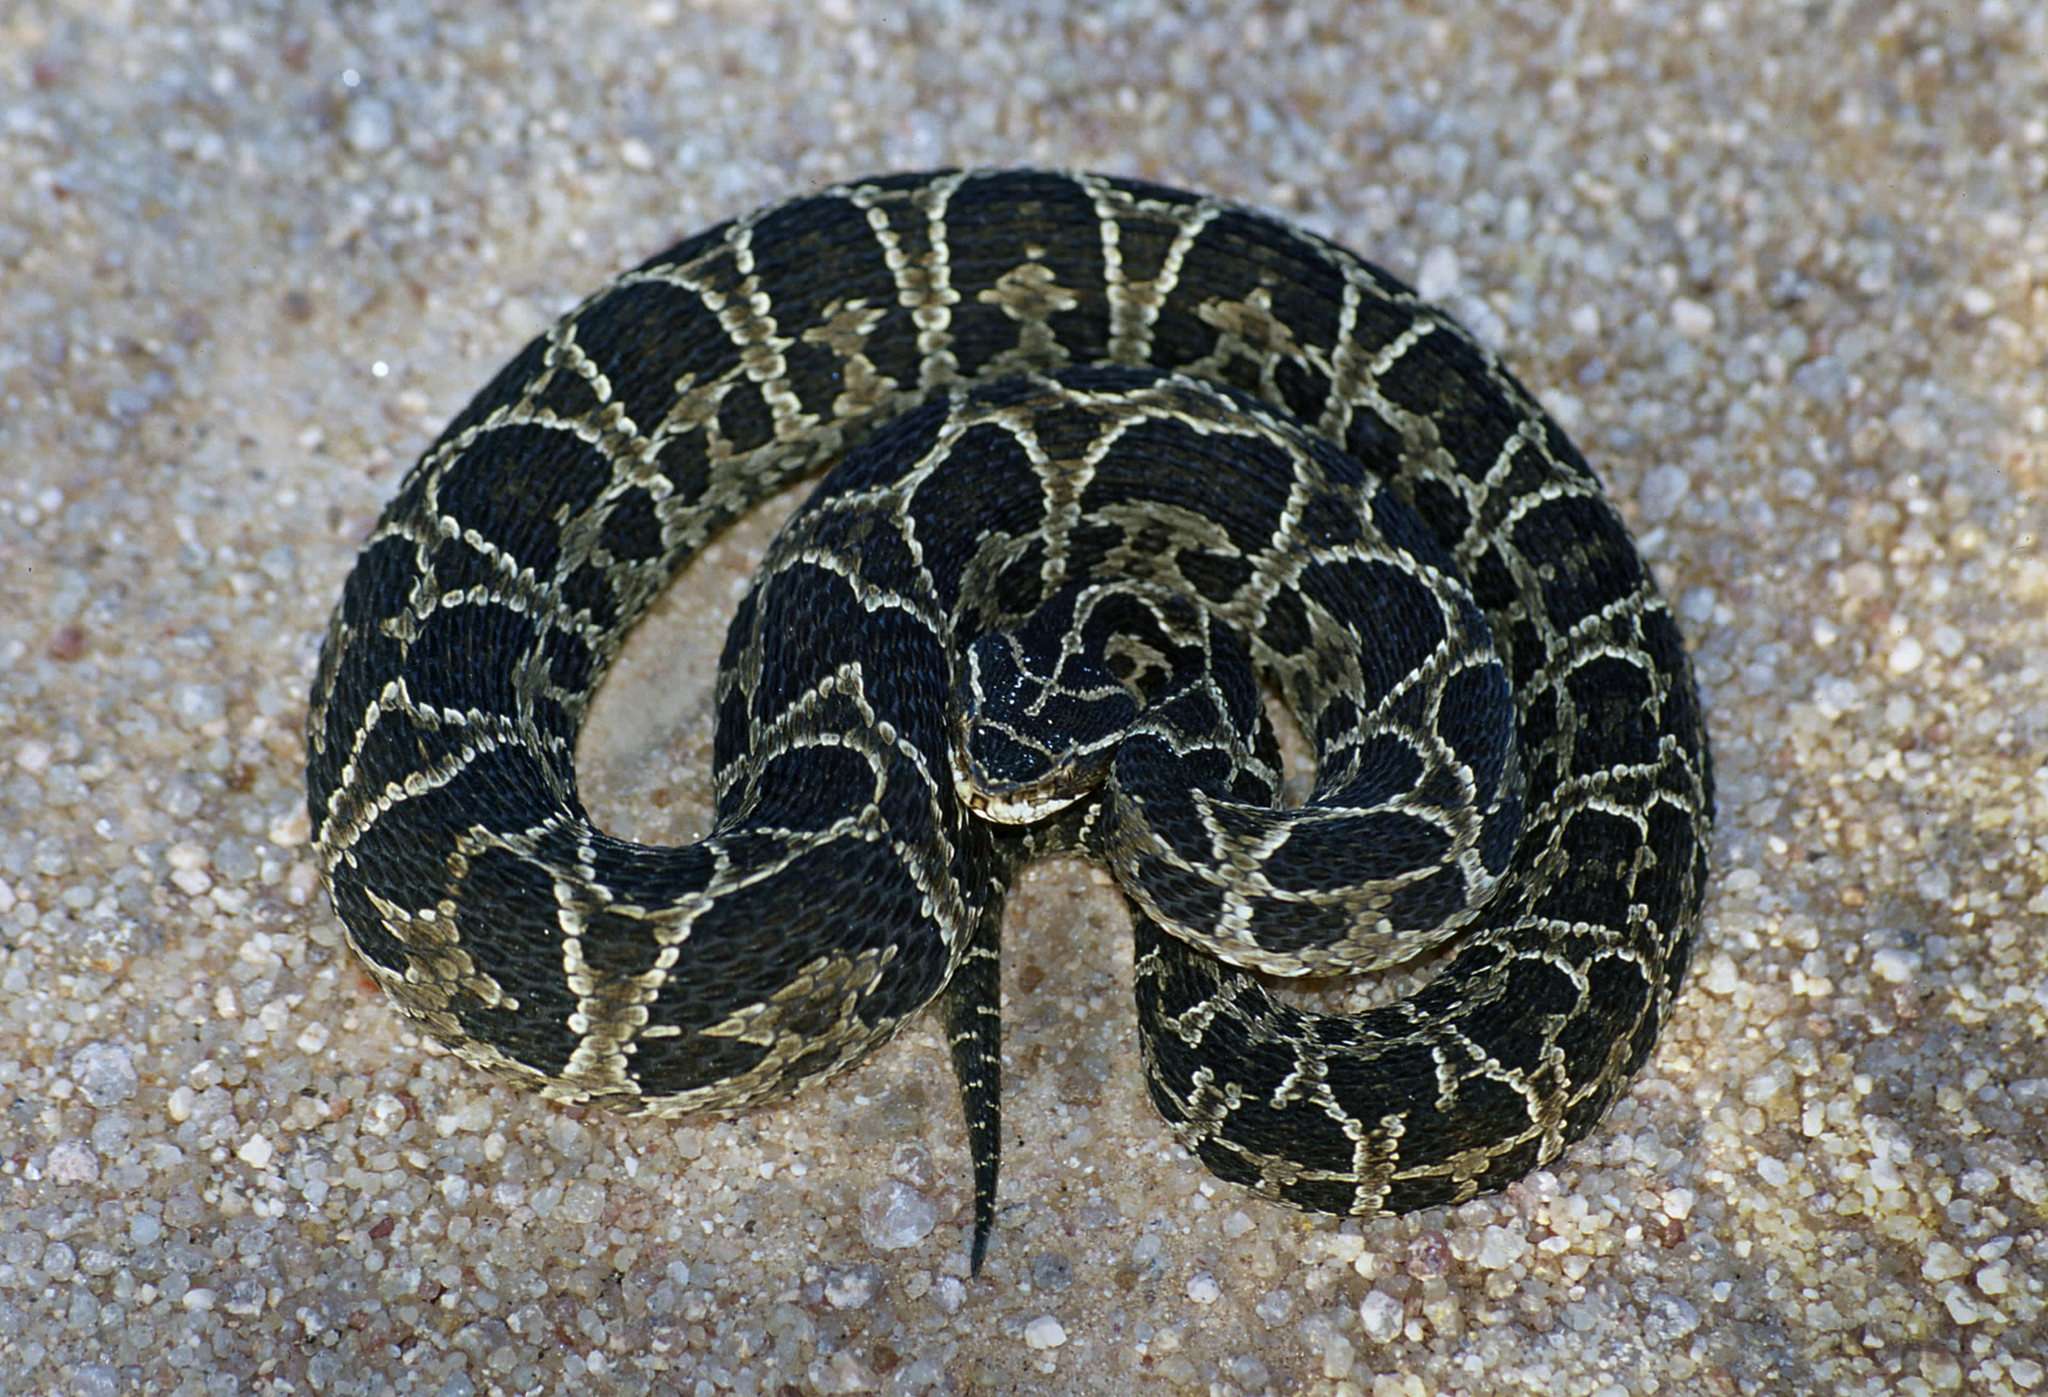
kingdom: Animalia
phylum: Chordata
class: Squamata
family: Viperidae
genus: Bothrops
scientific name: Bothrops alternatus
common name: Urutu
